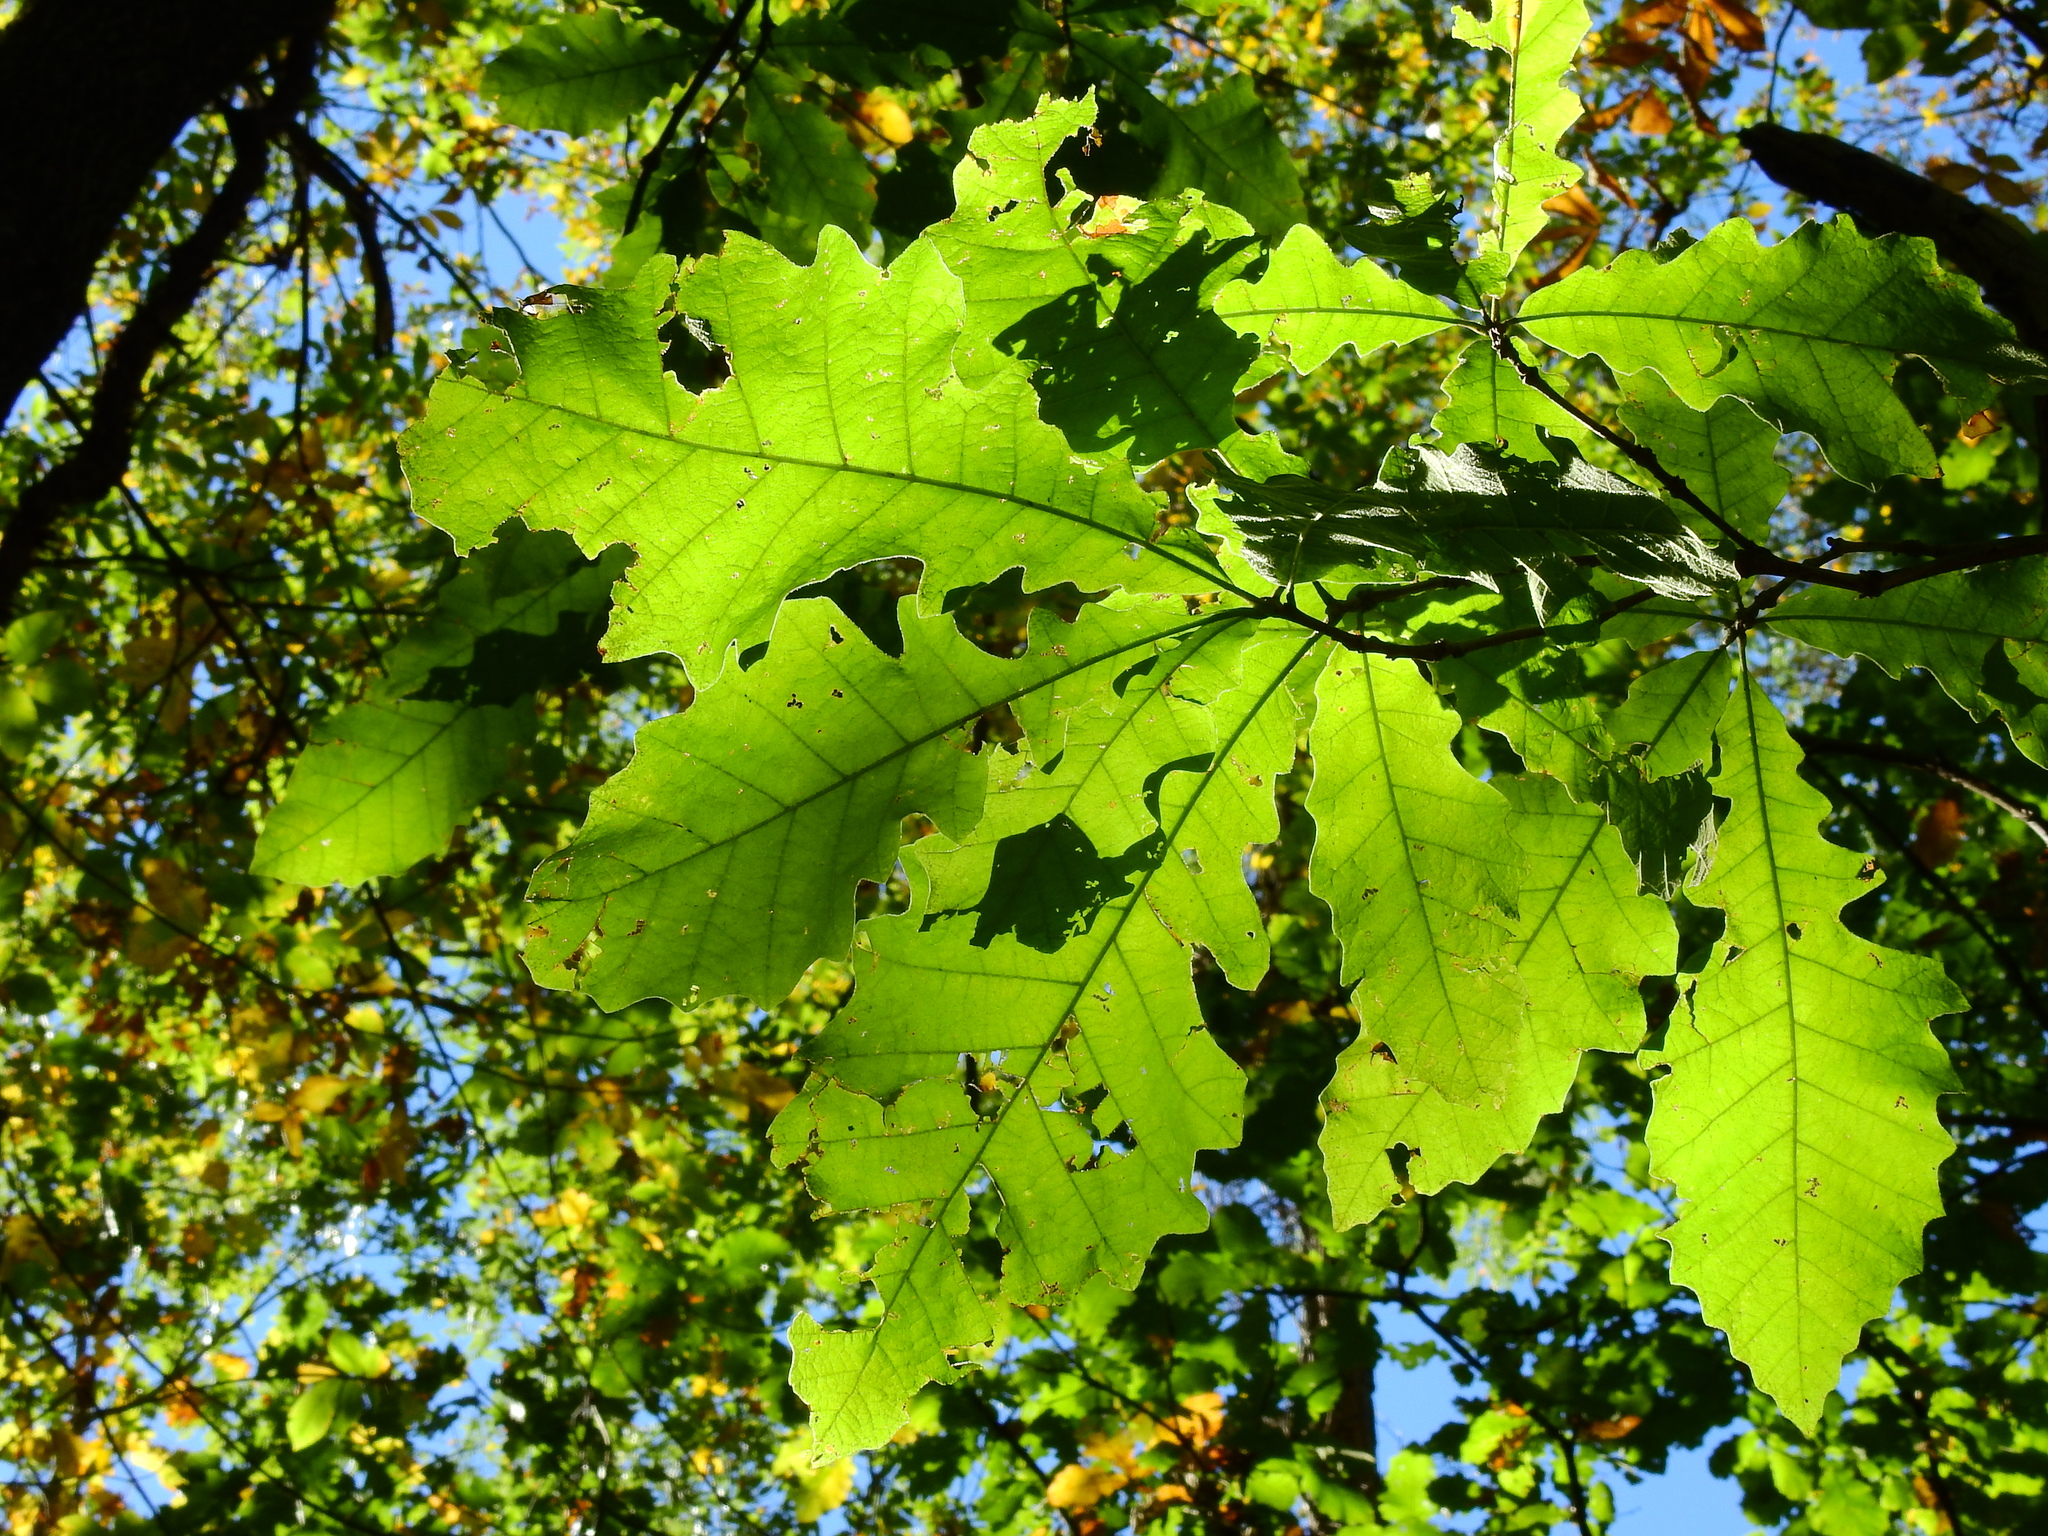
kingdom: Plantae
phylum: Tracheophyta
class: Magnoliopsida
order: Fagales
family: Fagaceae
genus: Quercus
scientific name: Quercus bicolor
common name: Swamp white oak
